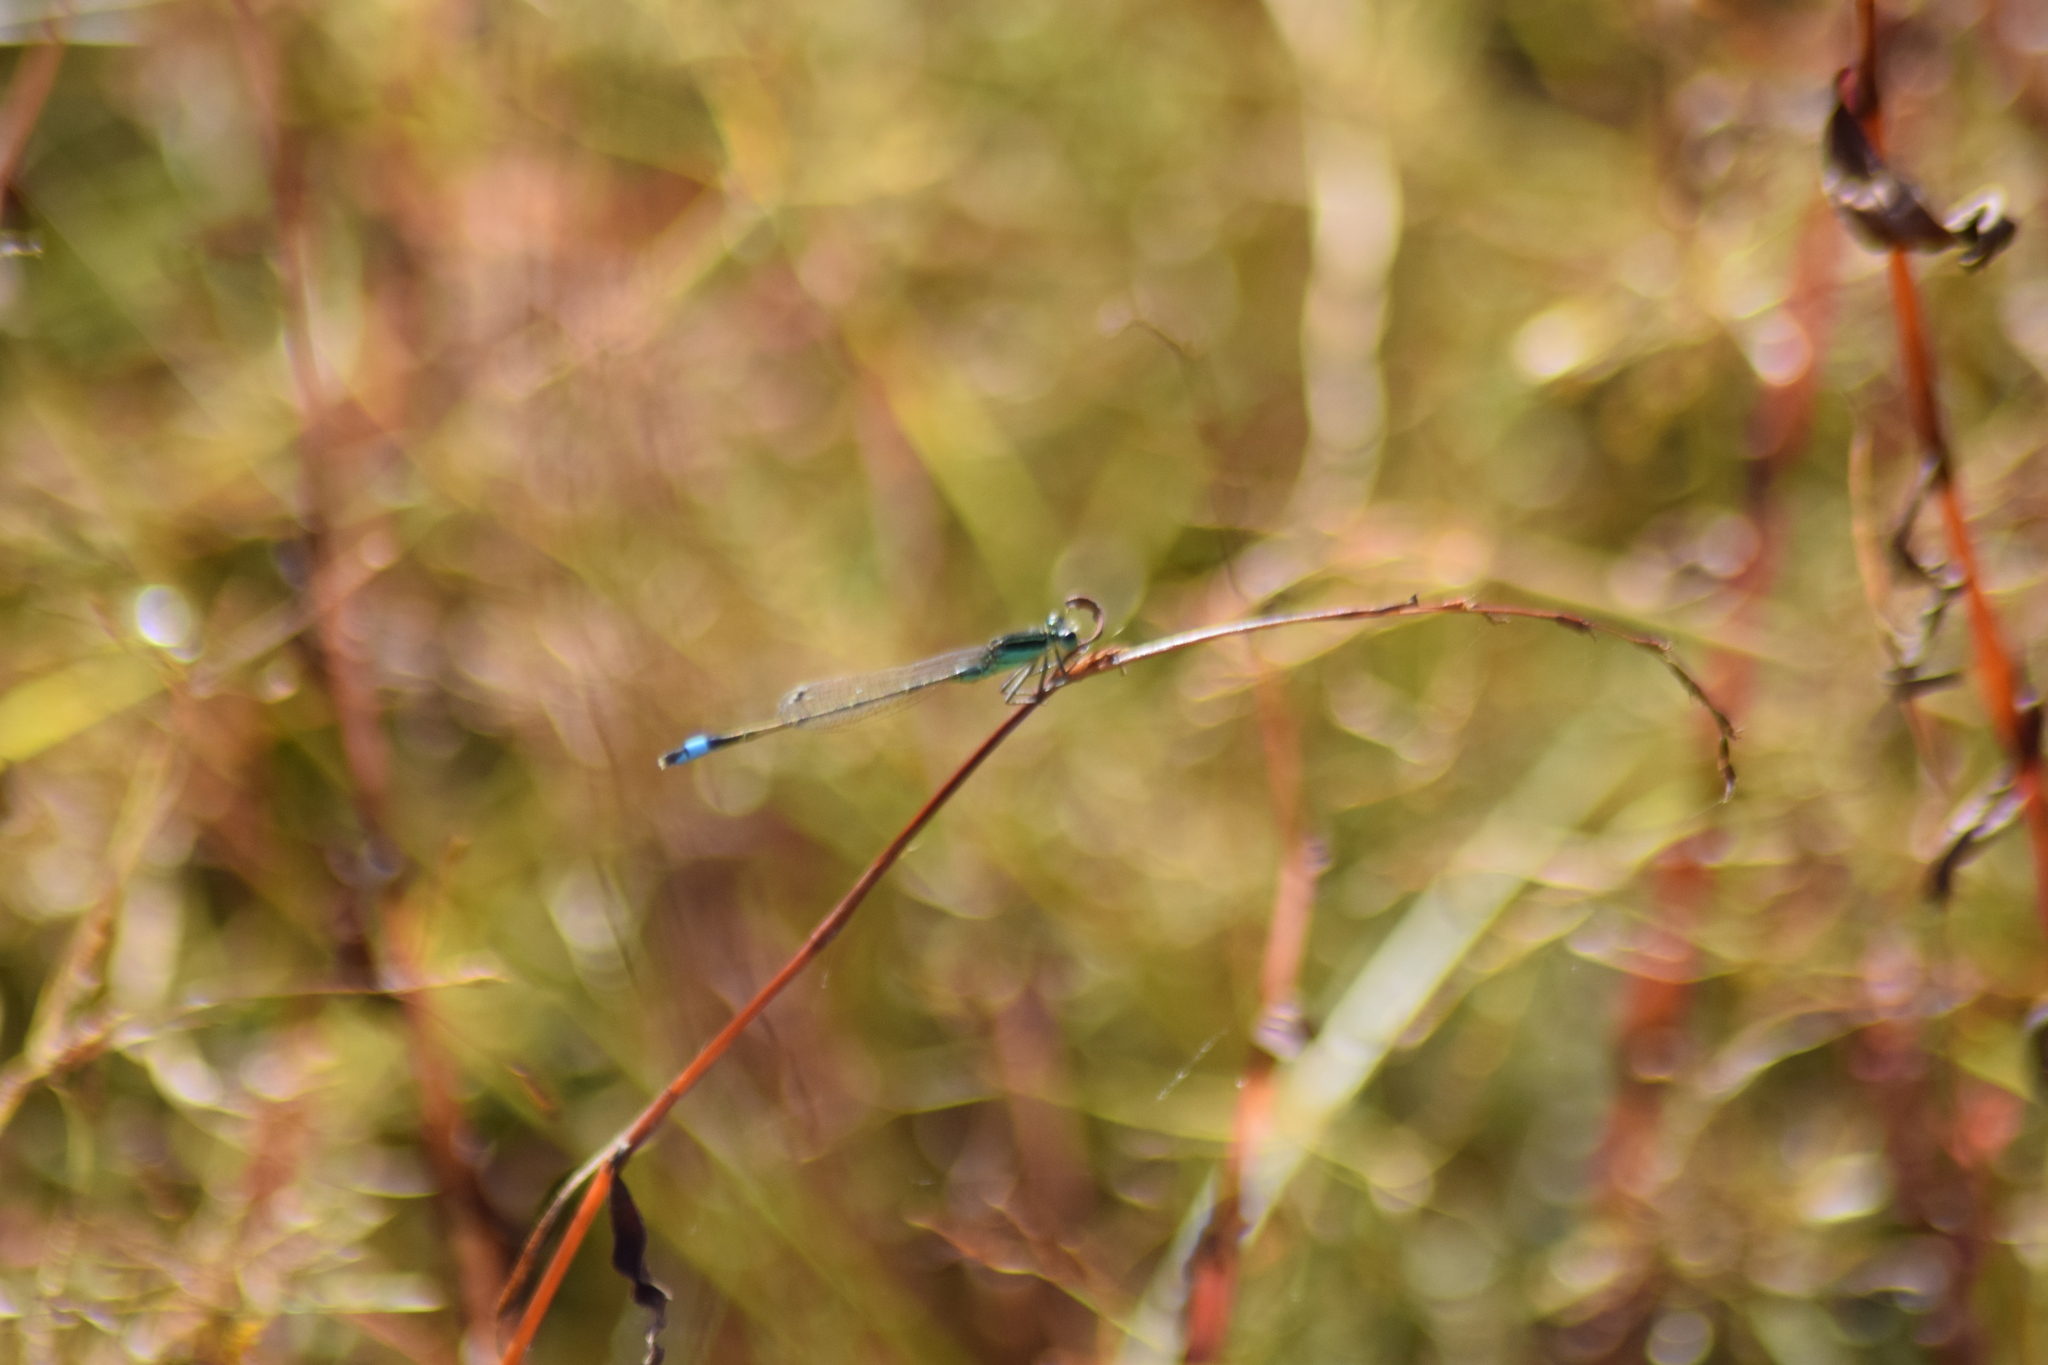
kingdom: Animalia
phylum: Arthropoda
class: Insecta
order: Odonata
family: Coenagrionidae
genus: Ischnura
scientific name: Ischnura ramburii
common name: Rambur's forktail
